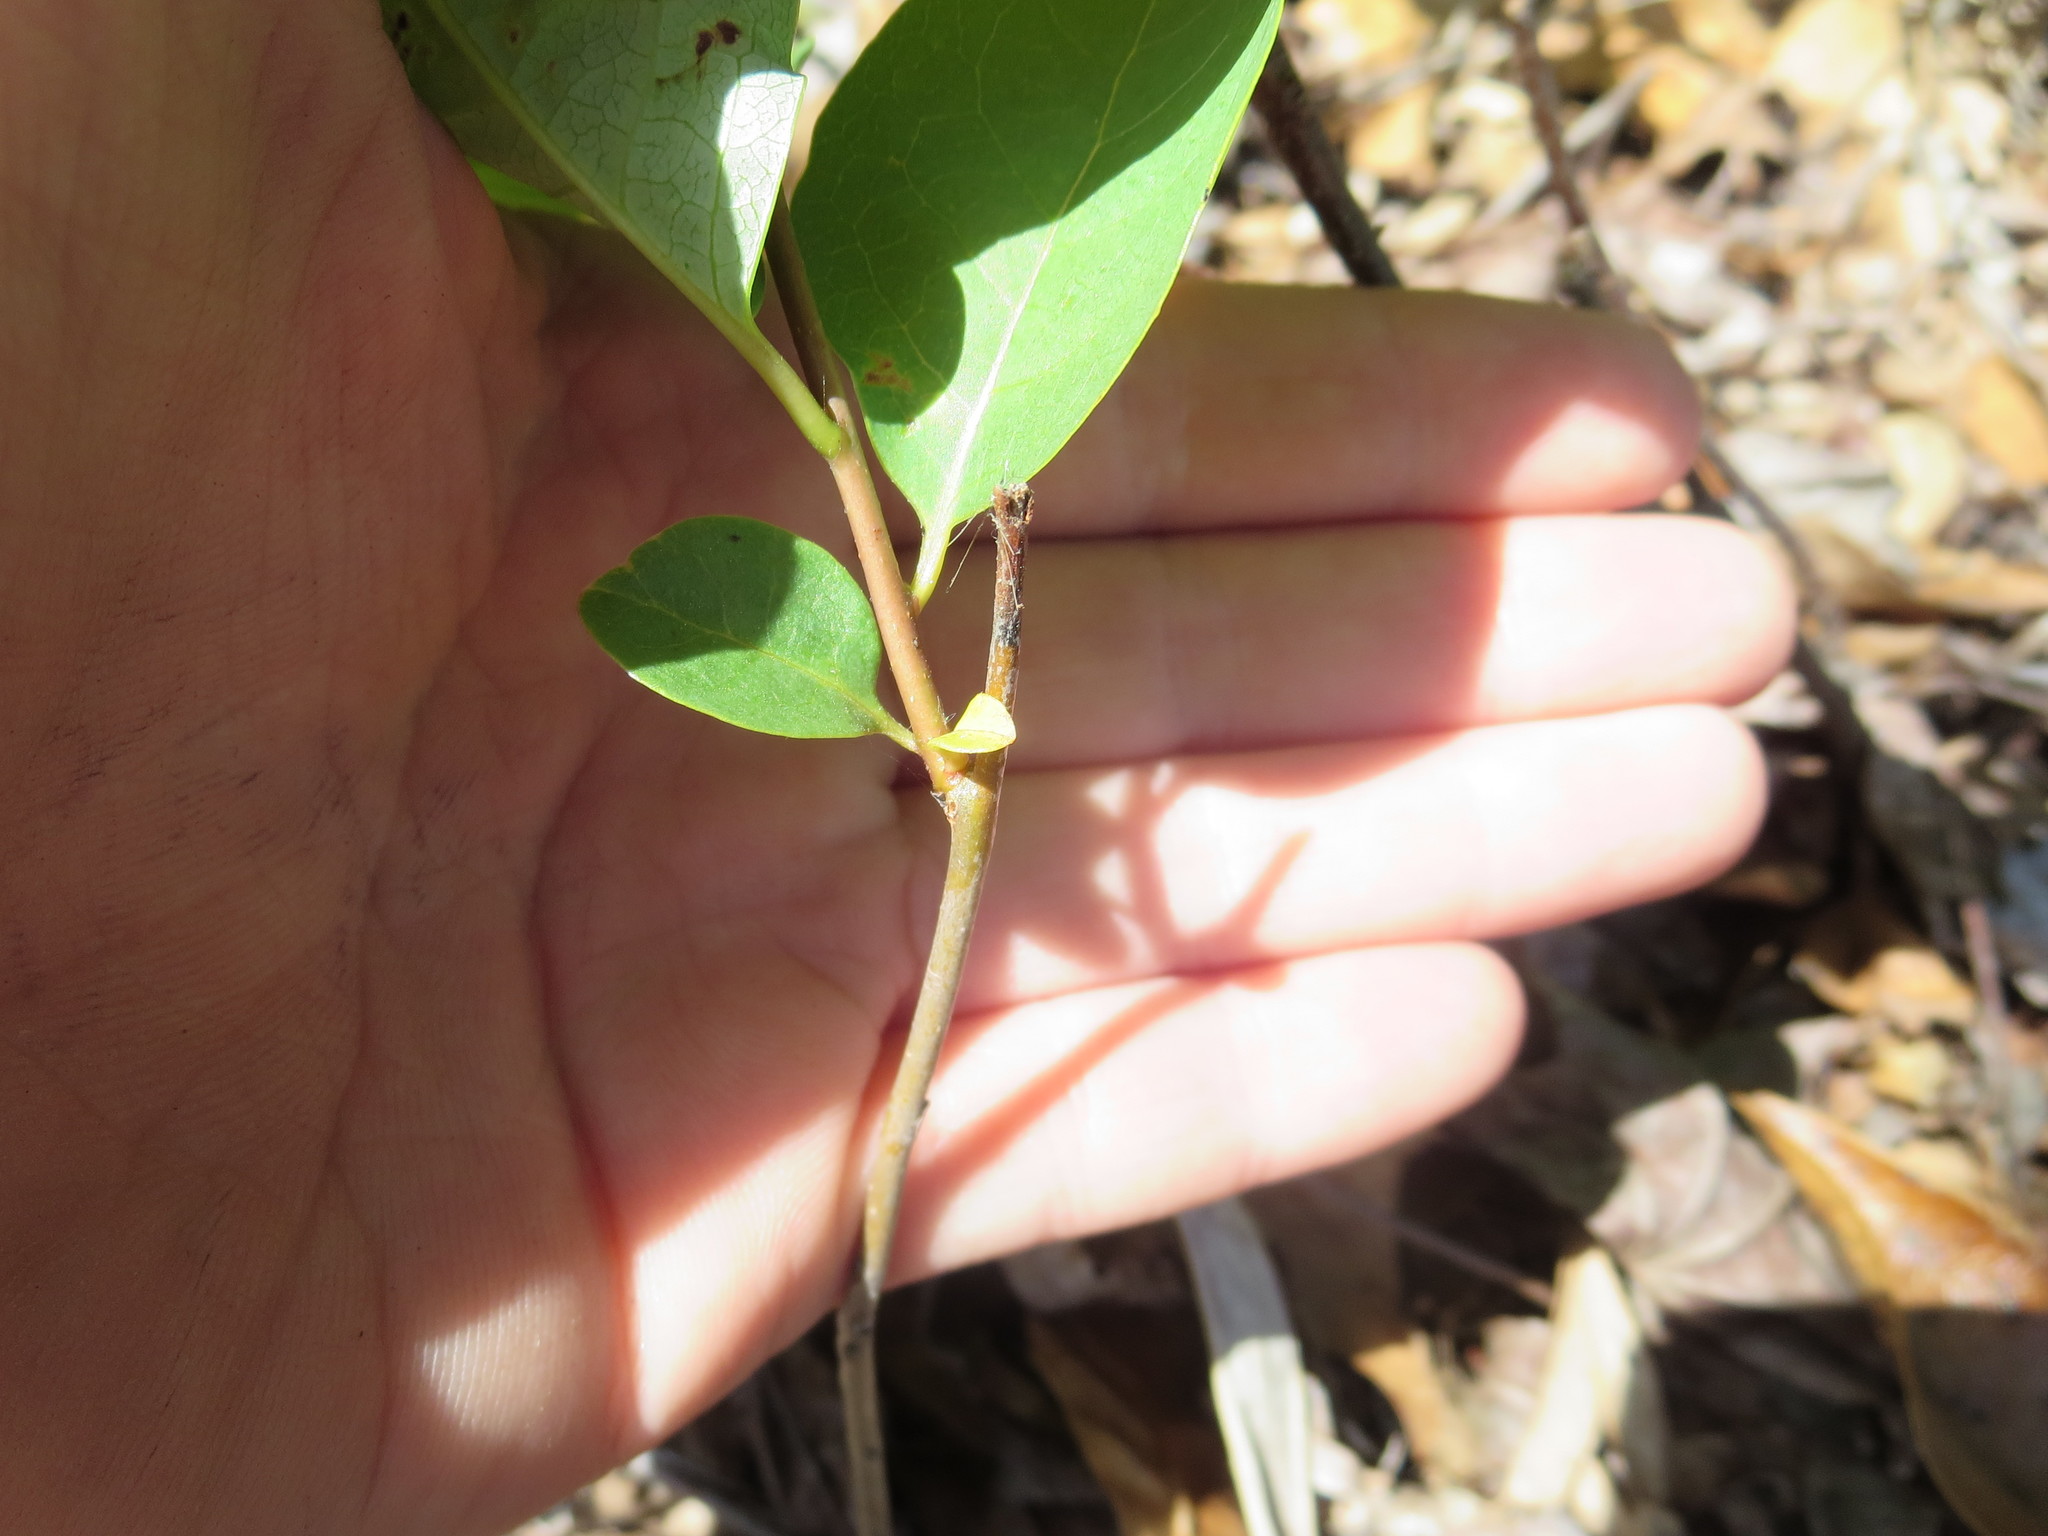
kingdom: Plantae
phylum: Tracheophyta
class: Magnoliopsida
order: Ericales
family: Ebenaceae
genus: Diospyros
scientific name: Diospyros virginiana
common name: Persimmon
